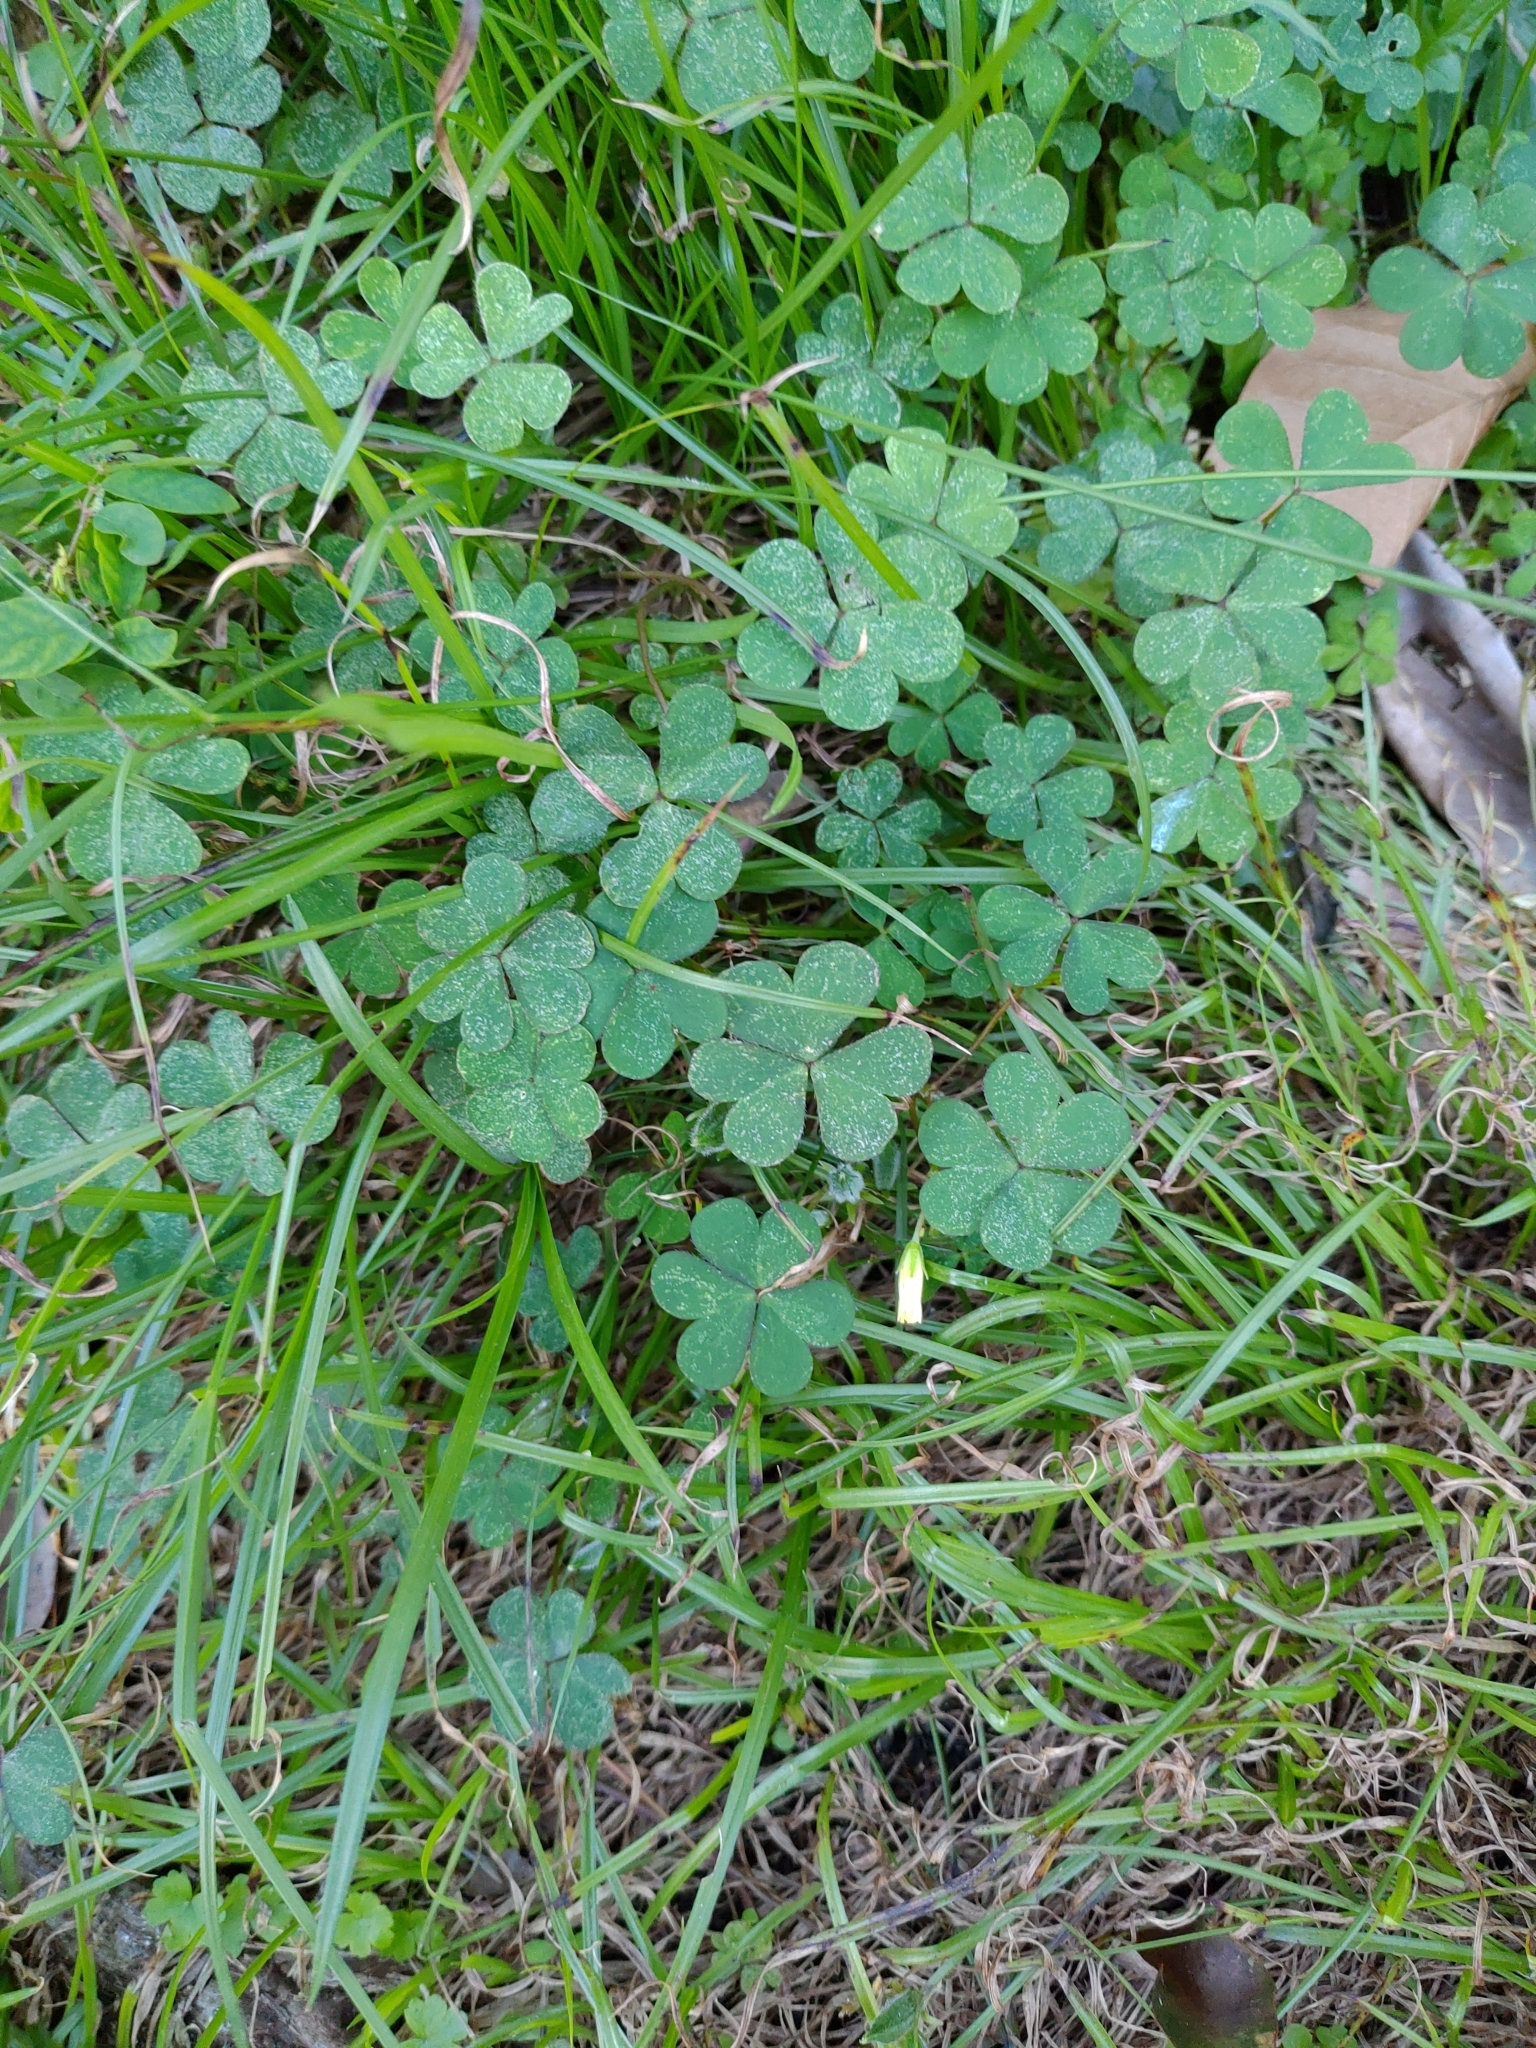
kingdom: Plantae
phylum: Tracheophyta
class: Magnoliopsida
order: Oxalidales
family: Oxalidaceae
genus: Oxalis
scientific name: Oxalis corniculata
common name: Procumbent yellow-sorrel
